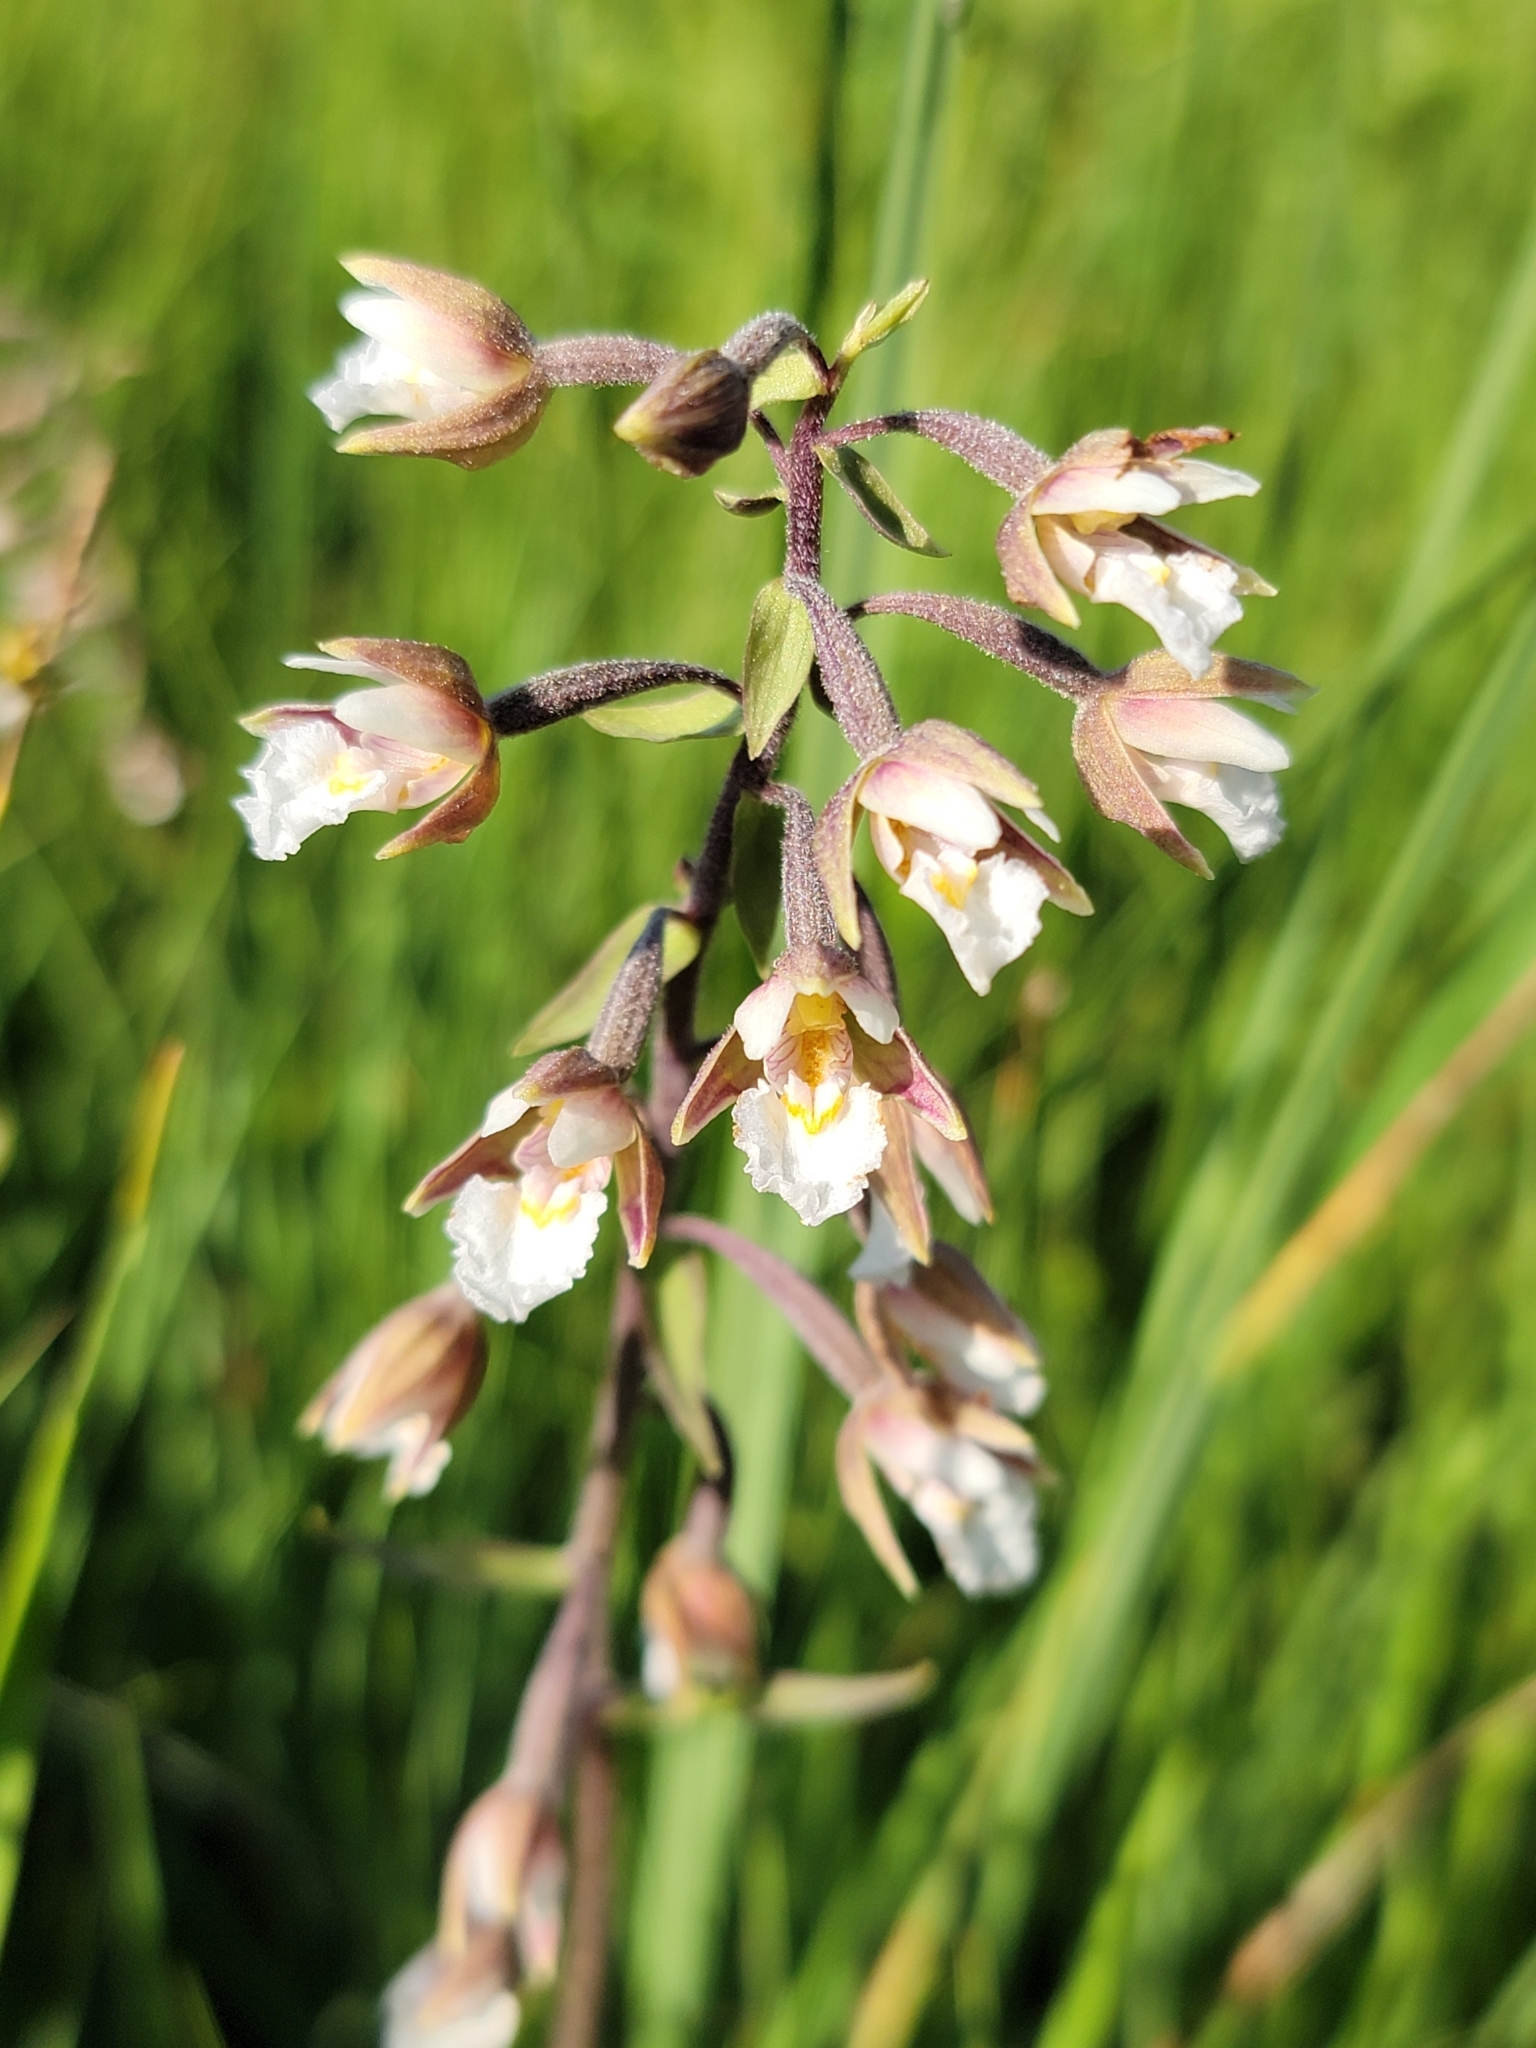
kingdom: Plantae
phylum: Tracheophyta
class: Liliopsida
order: Asparagales
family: Orchidaceae
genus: Epipactis
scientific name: Epipactis palustris
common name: Marsh helleborine
